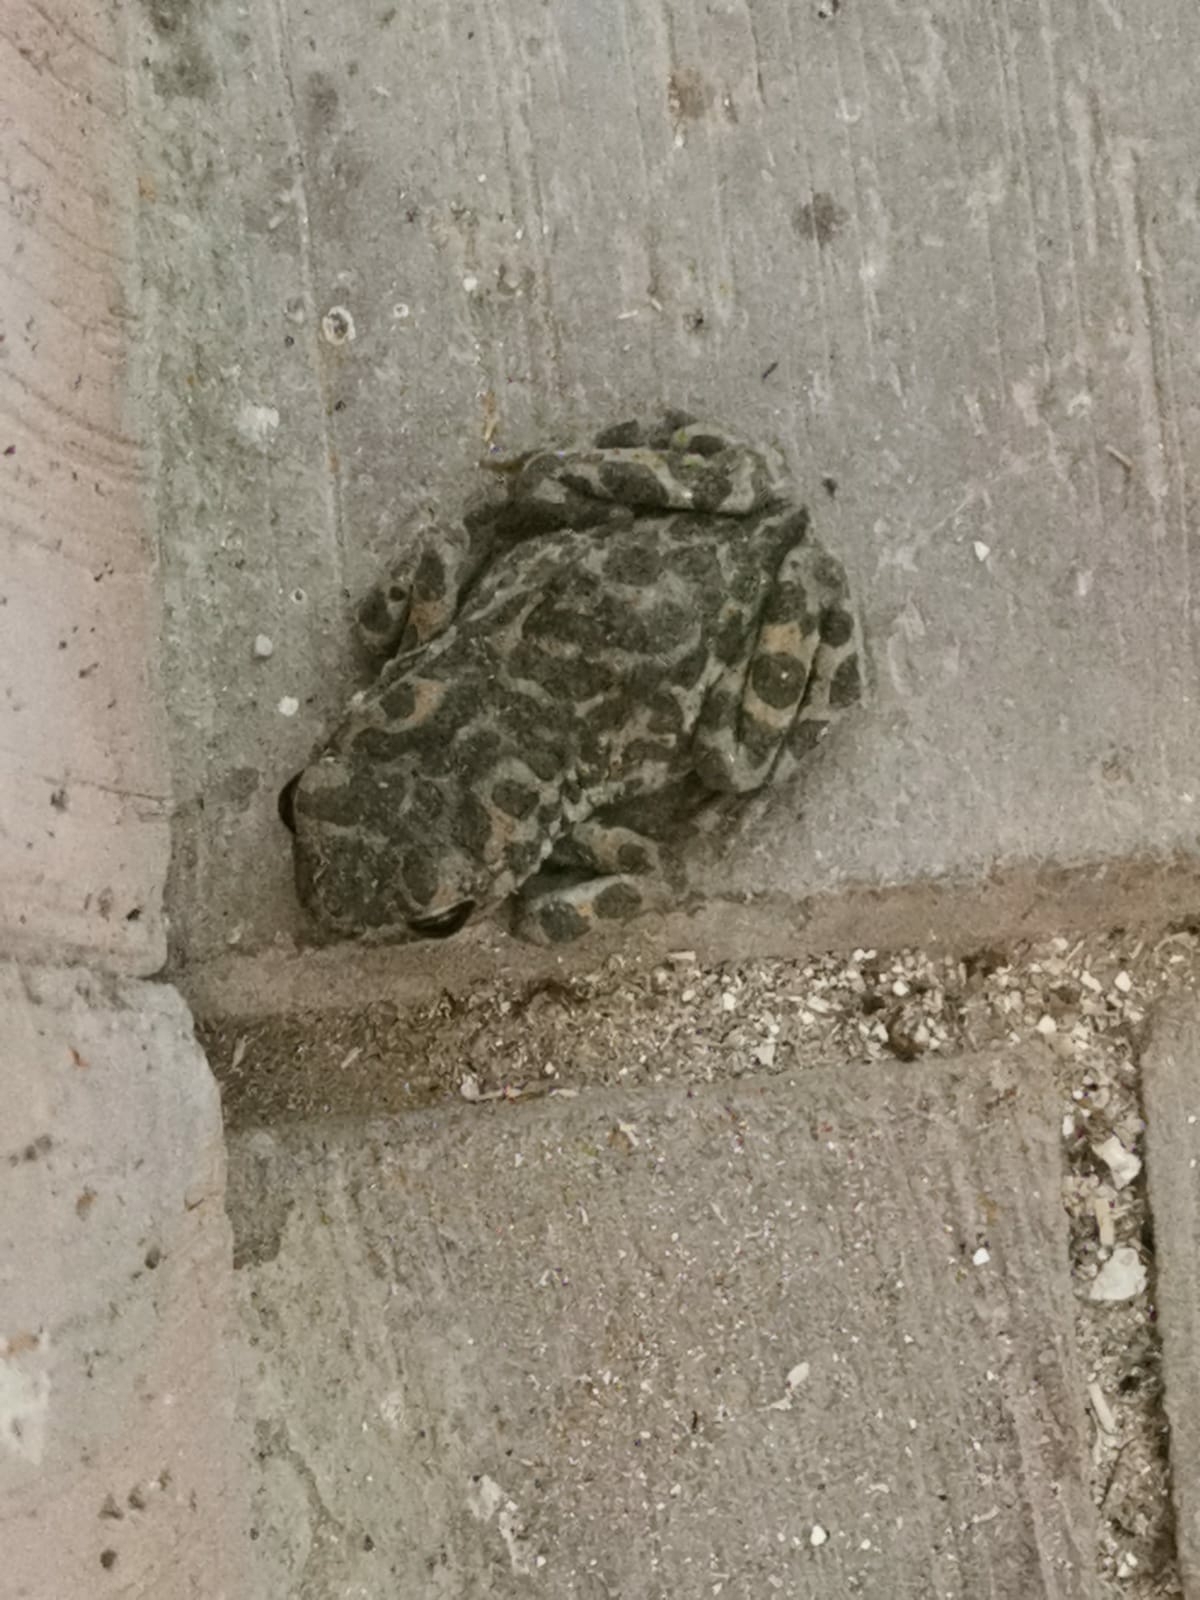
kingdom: Animalia
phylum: Chordata
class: Amphibia
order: Anura
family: Bufonidae
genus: Bufotes
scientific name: Bufotes viridis
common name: European green toad
